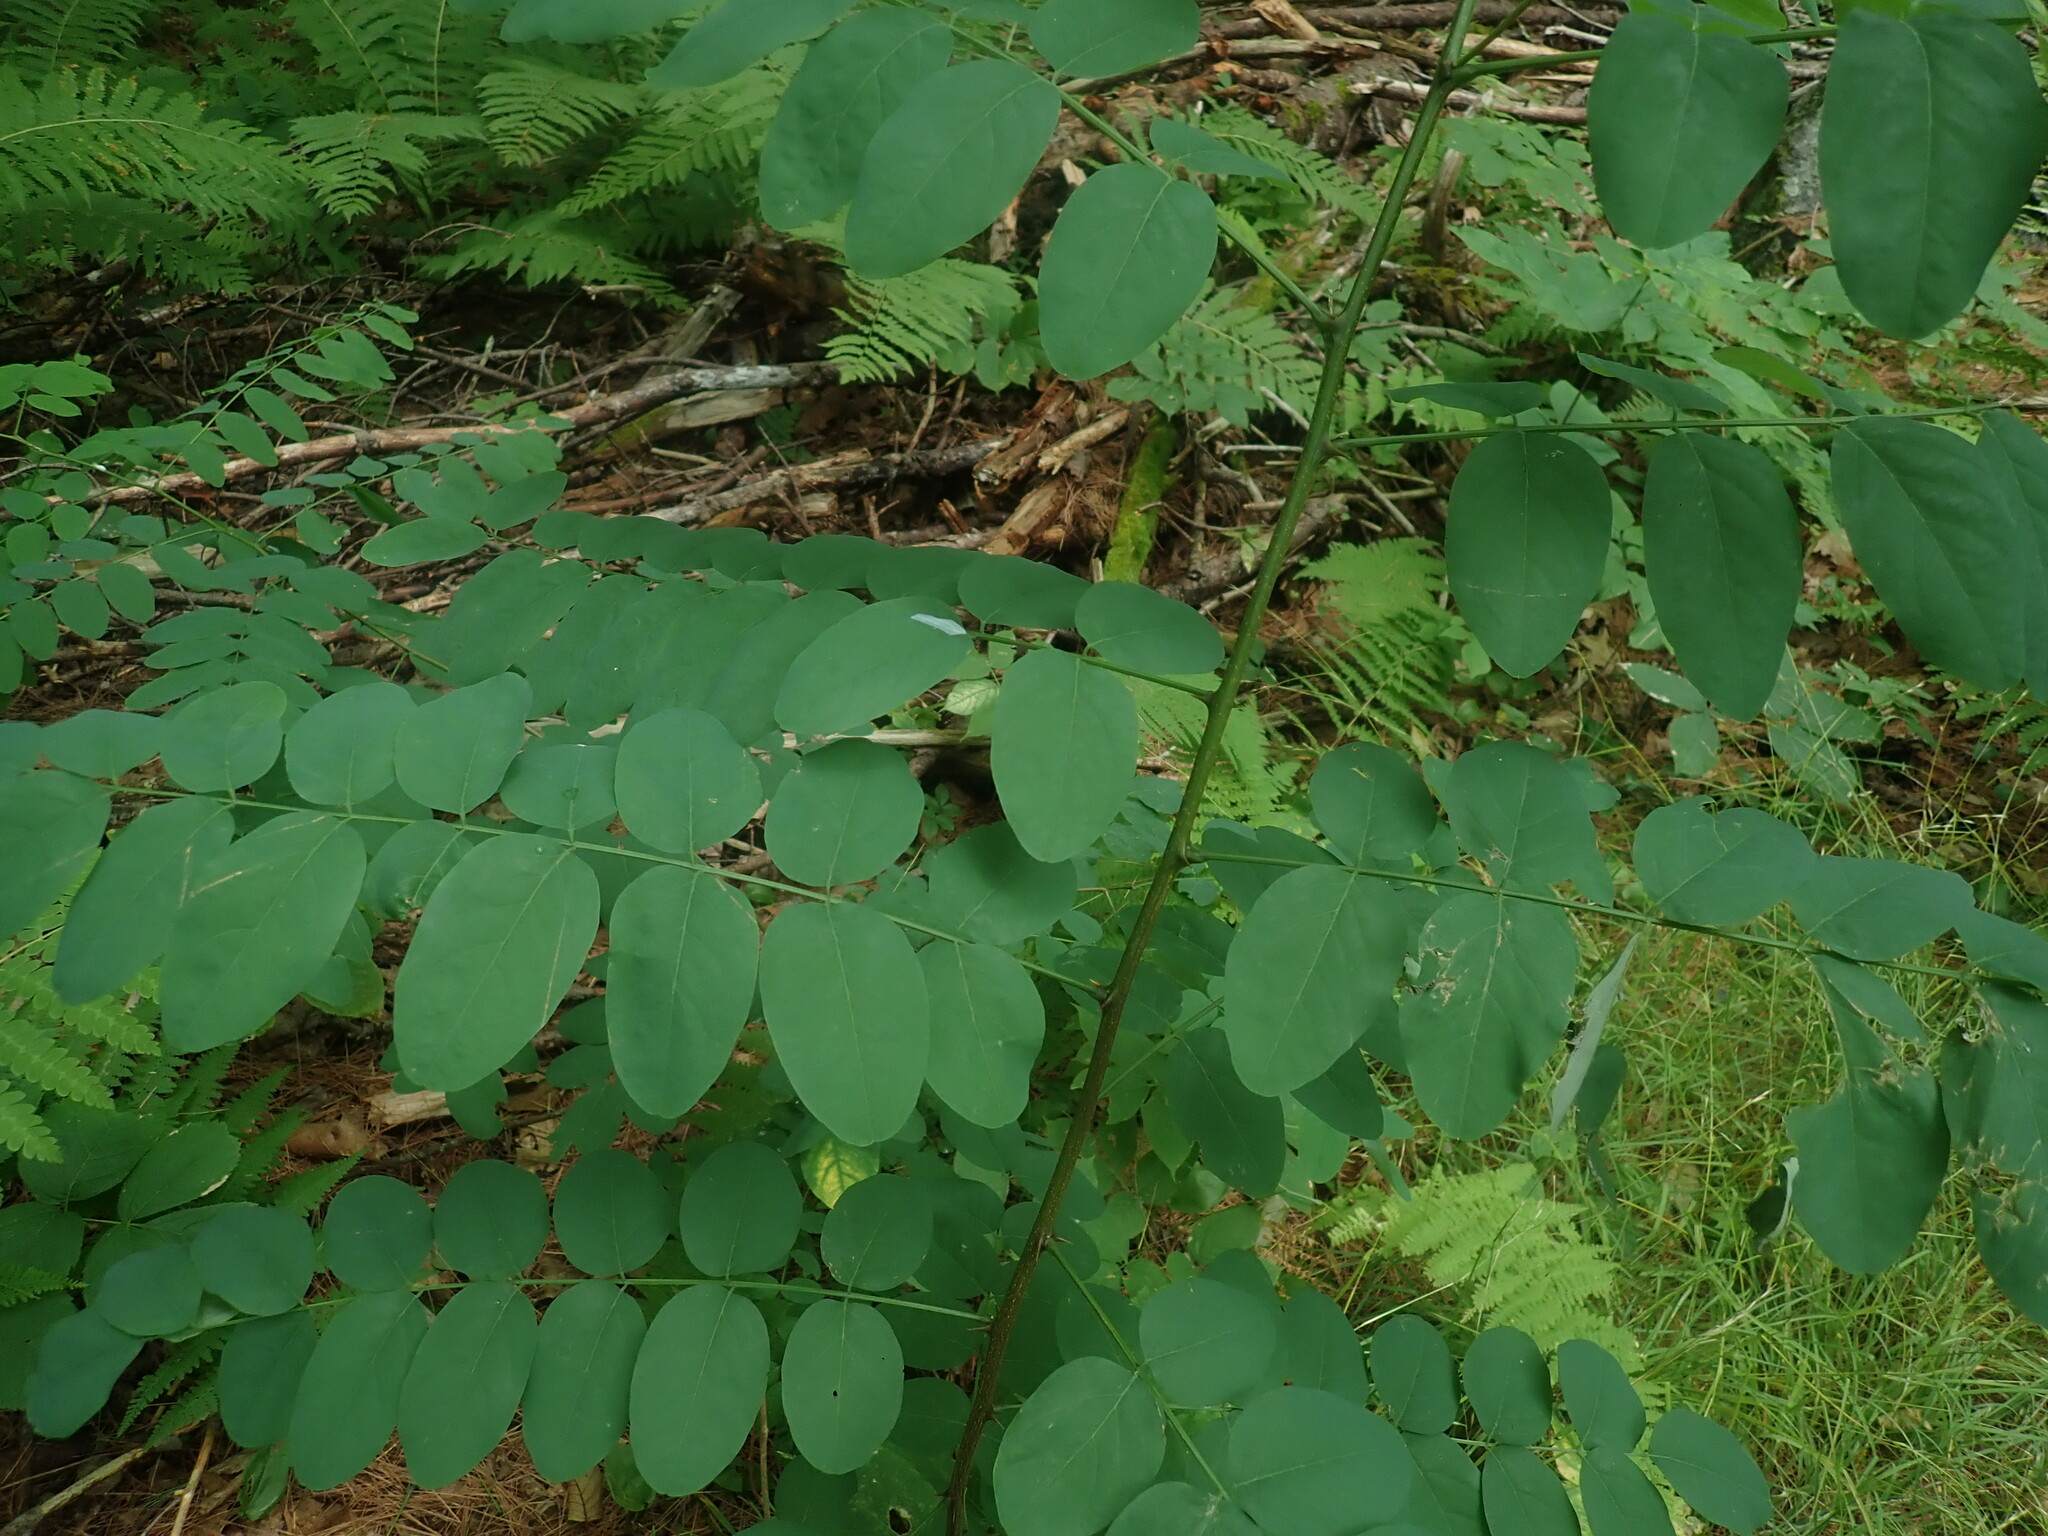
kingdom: Plantae
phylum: Tracheophyta
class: Magnoliopsida
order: Fabales
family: Fabaceae
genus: Robinia
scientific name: Robinia pseudoacacia
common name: Black locust
